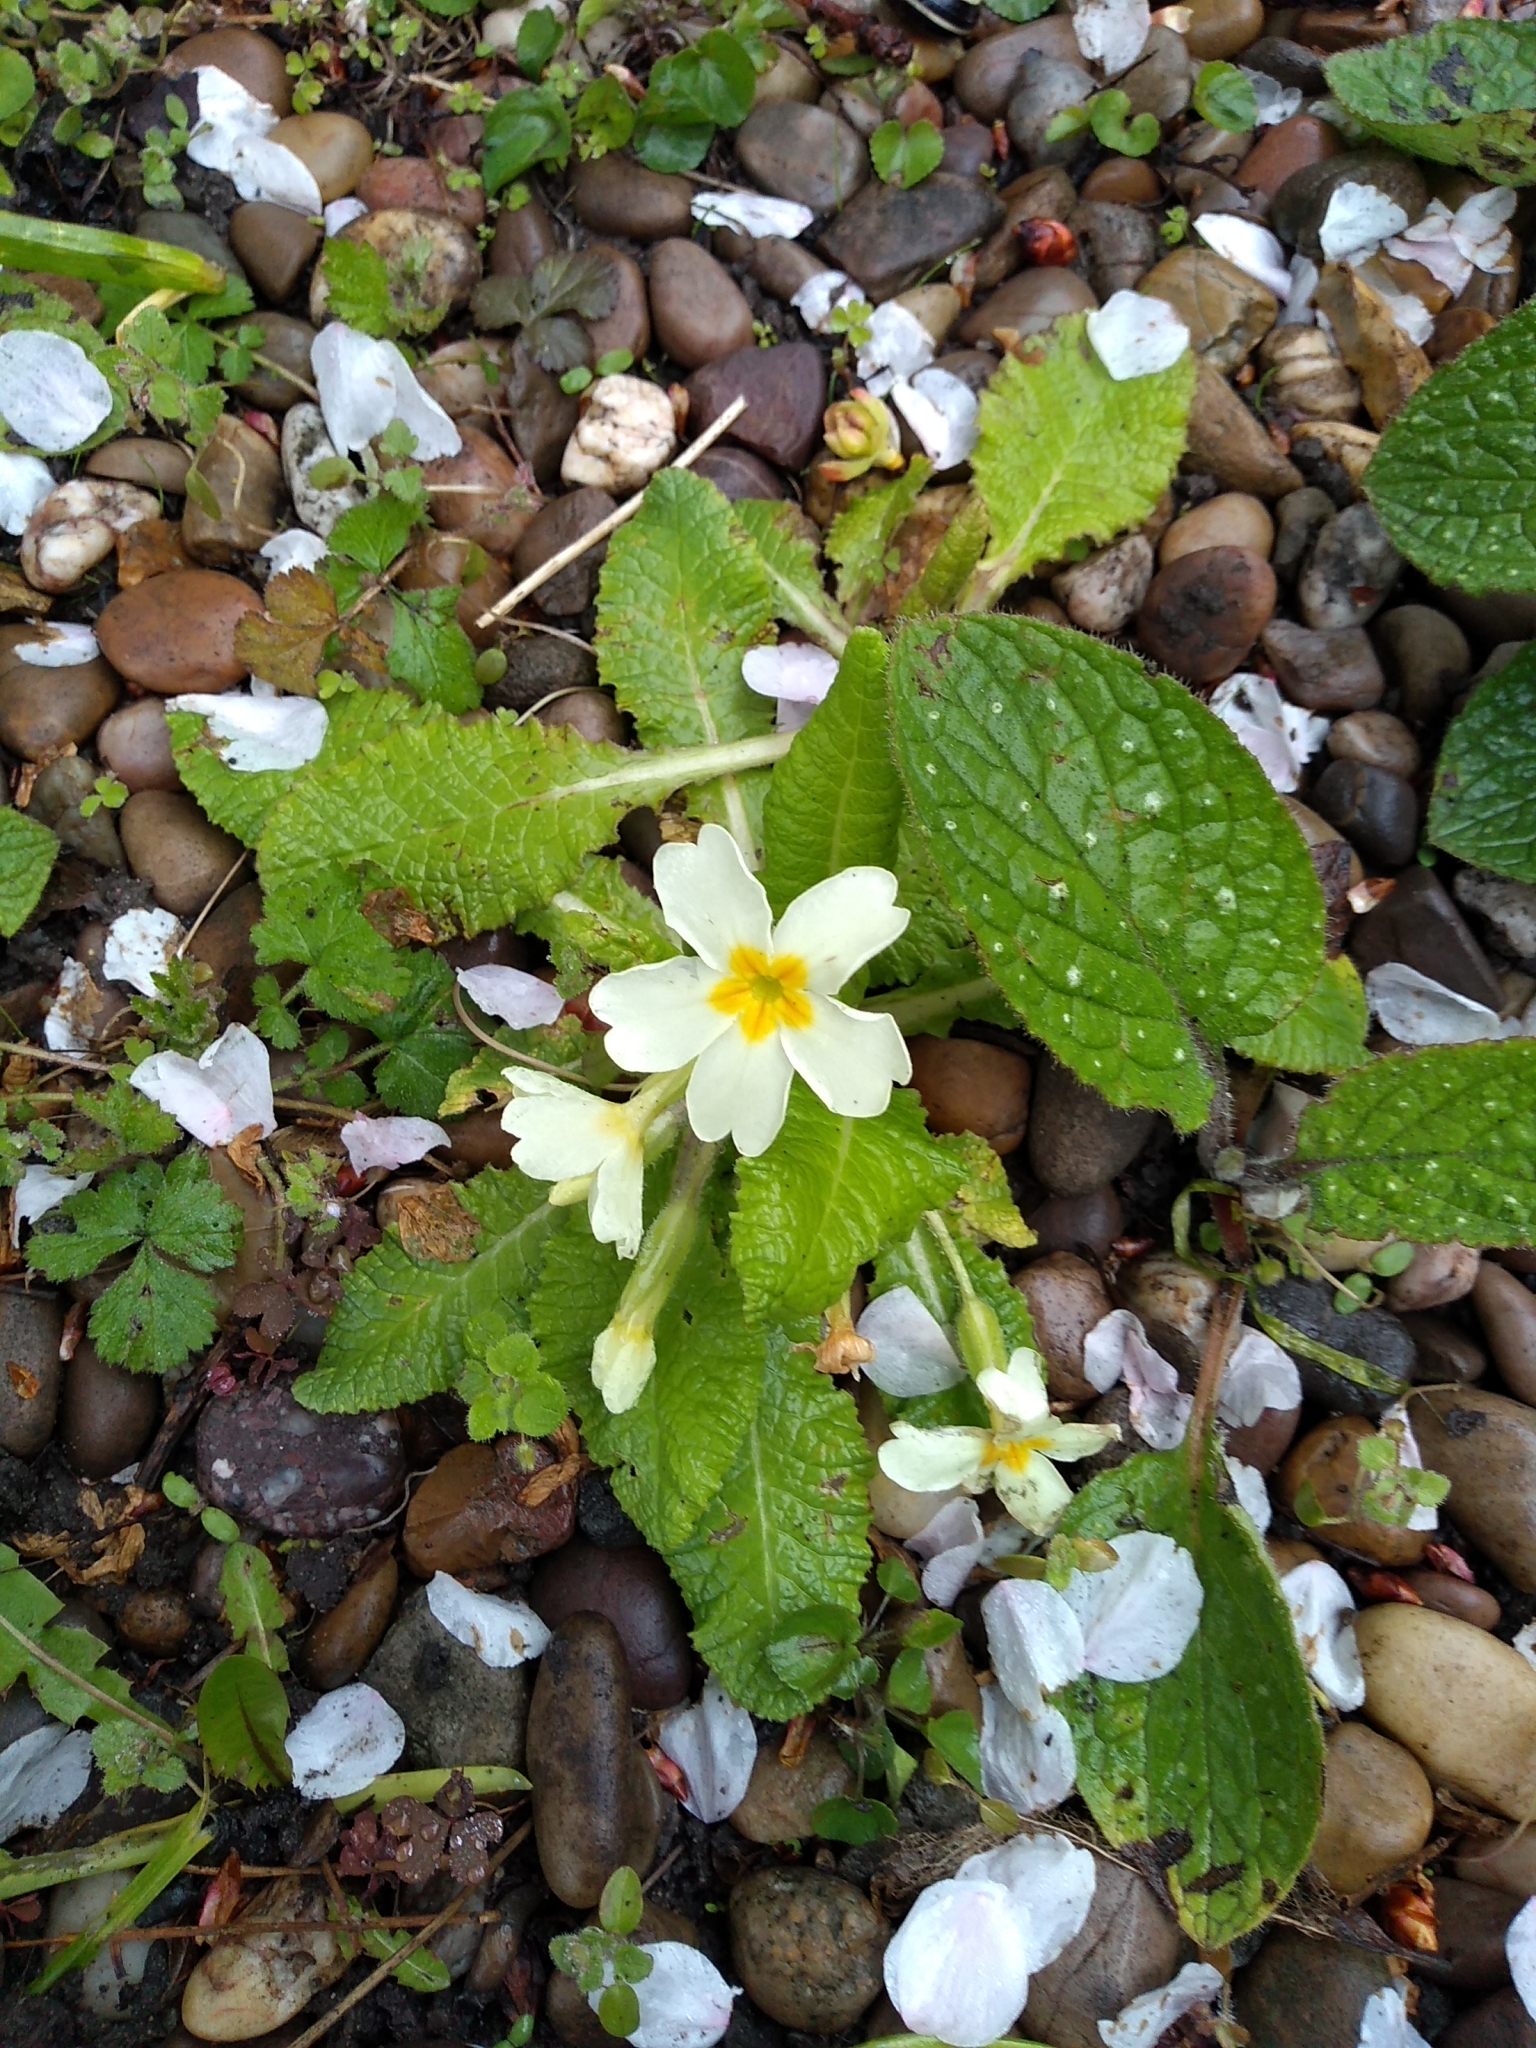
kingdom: Plantae
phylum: Tracheophyta
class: Magnoliopsida
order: Ericales
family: Primulaceae
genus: Primula
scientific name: Primula vulgaris
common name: Primrose
